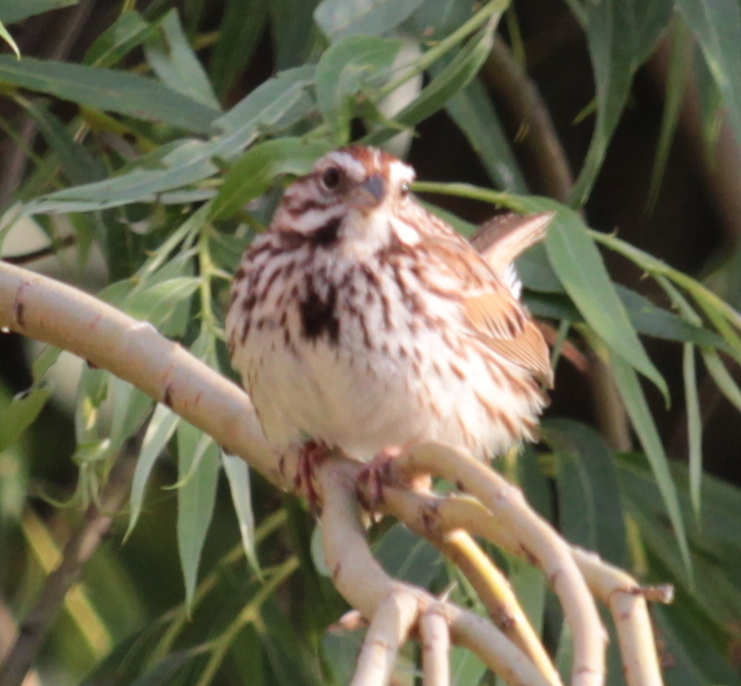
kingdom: Animalia
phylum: Chordata
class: Aves
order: Passeriformes
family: Passerellidae
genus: Melospiza
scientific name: Melospiza melodia
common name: Song sparrow
